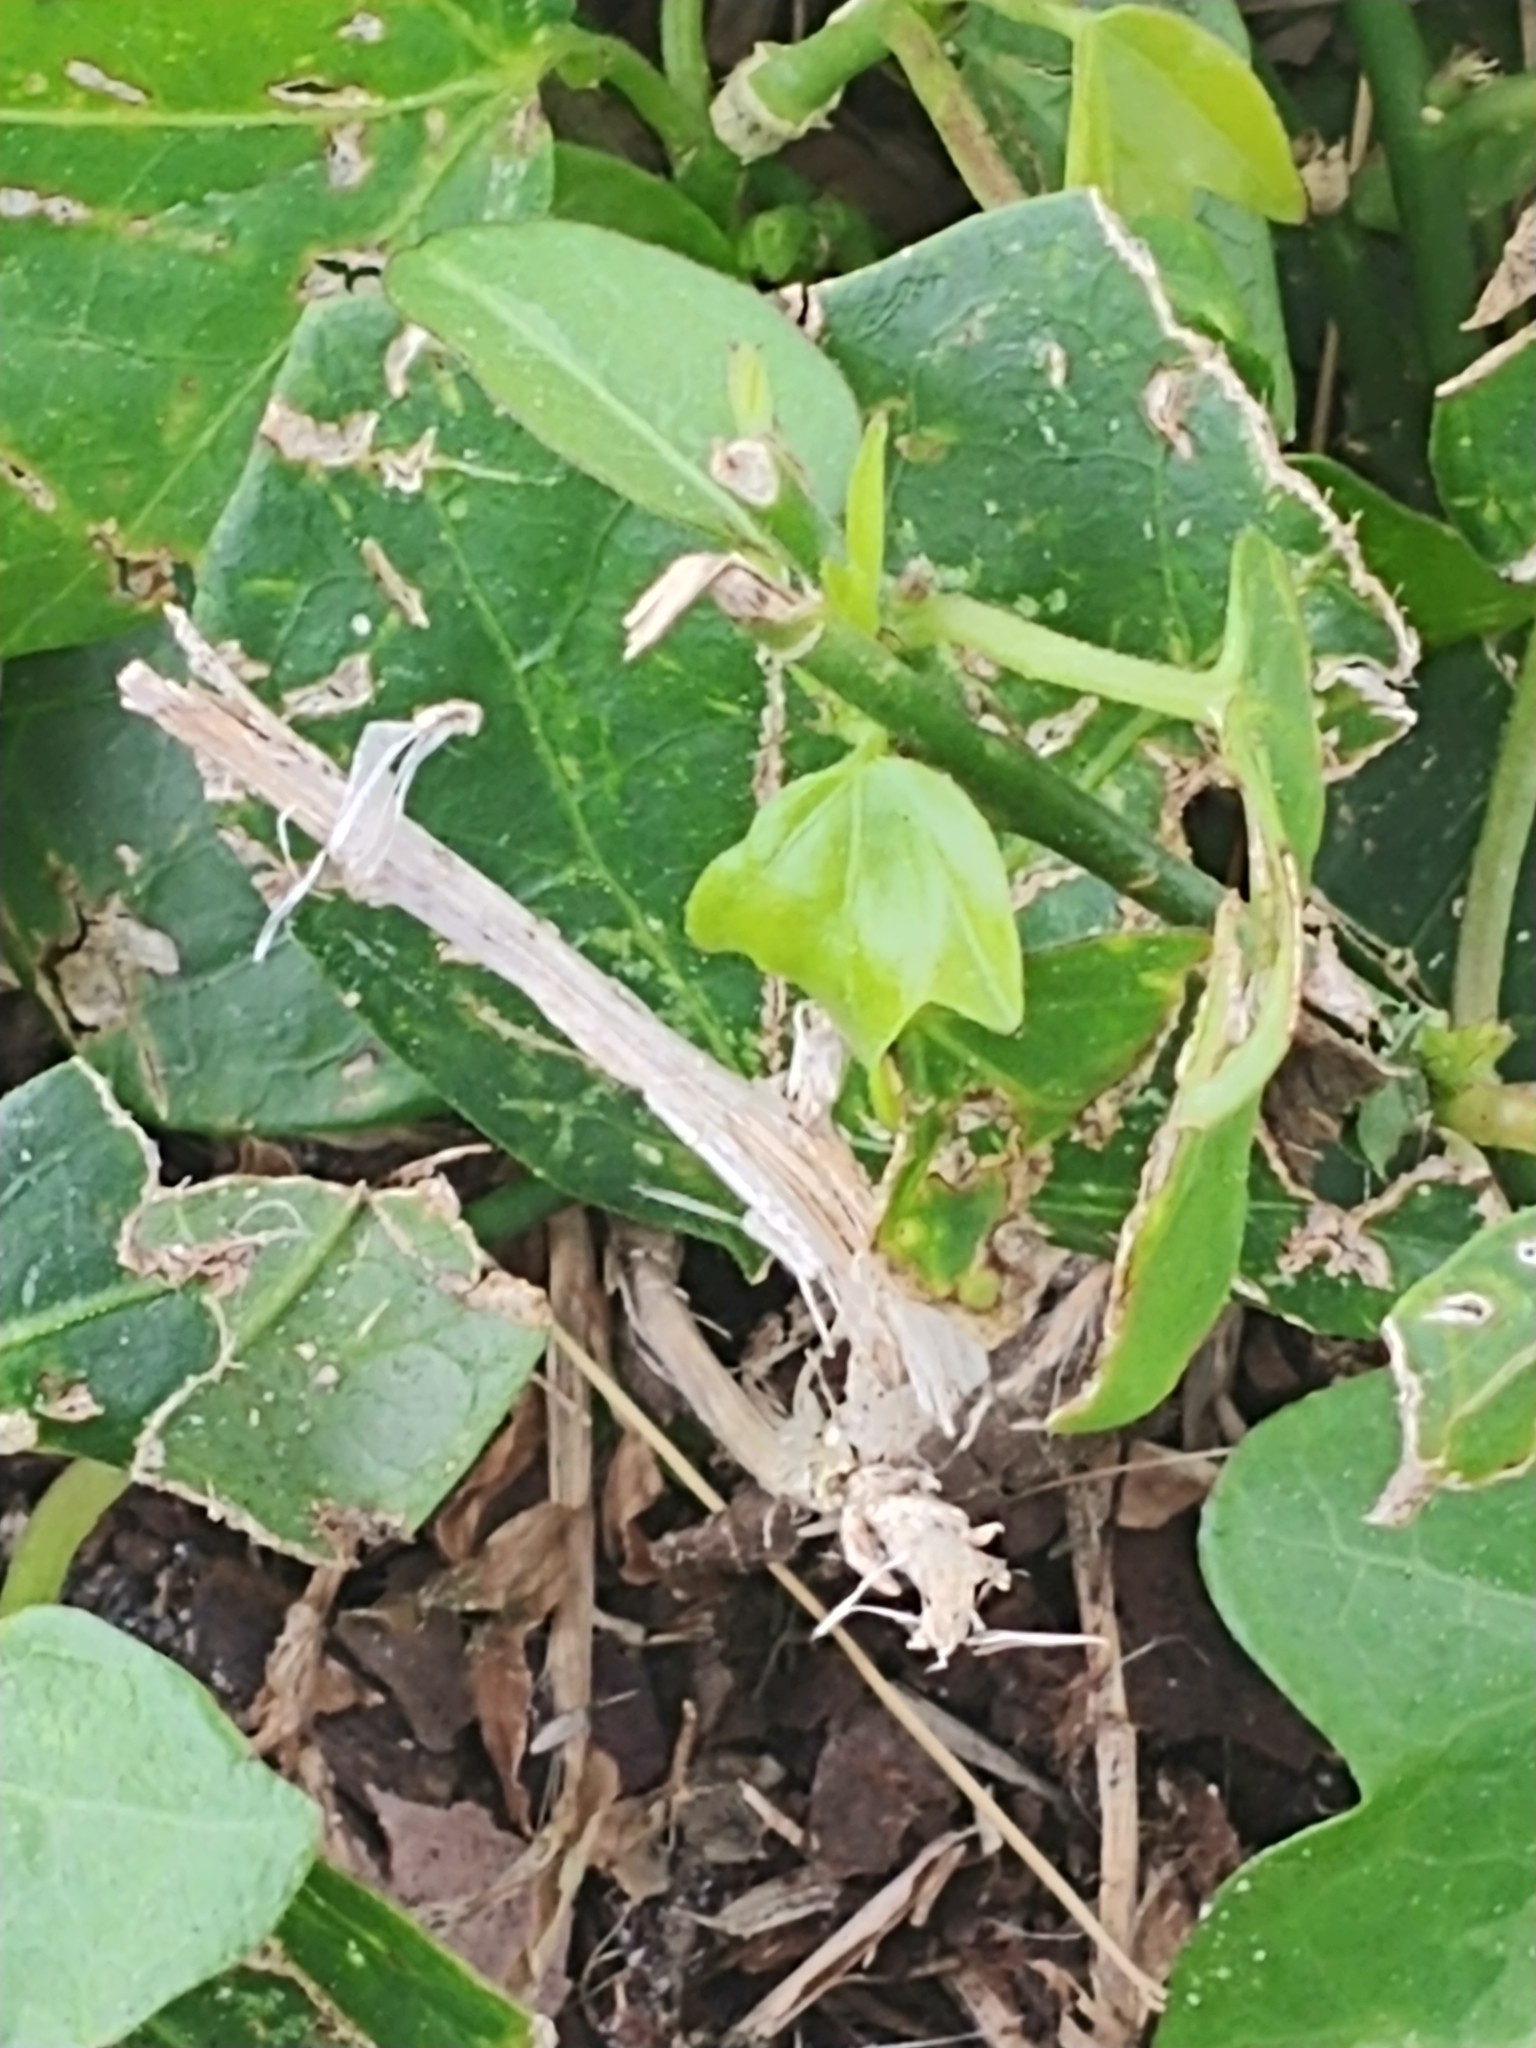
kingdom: Plantae
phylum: Tracheophyta
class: Magnoliopsida
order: Malpighiales
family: Passifloraceae
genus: Passiflora
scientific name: Passiflora pallida
